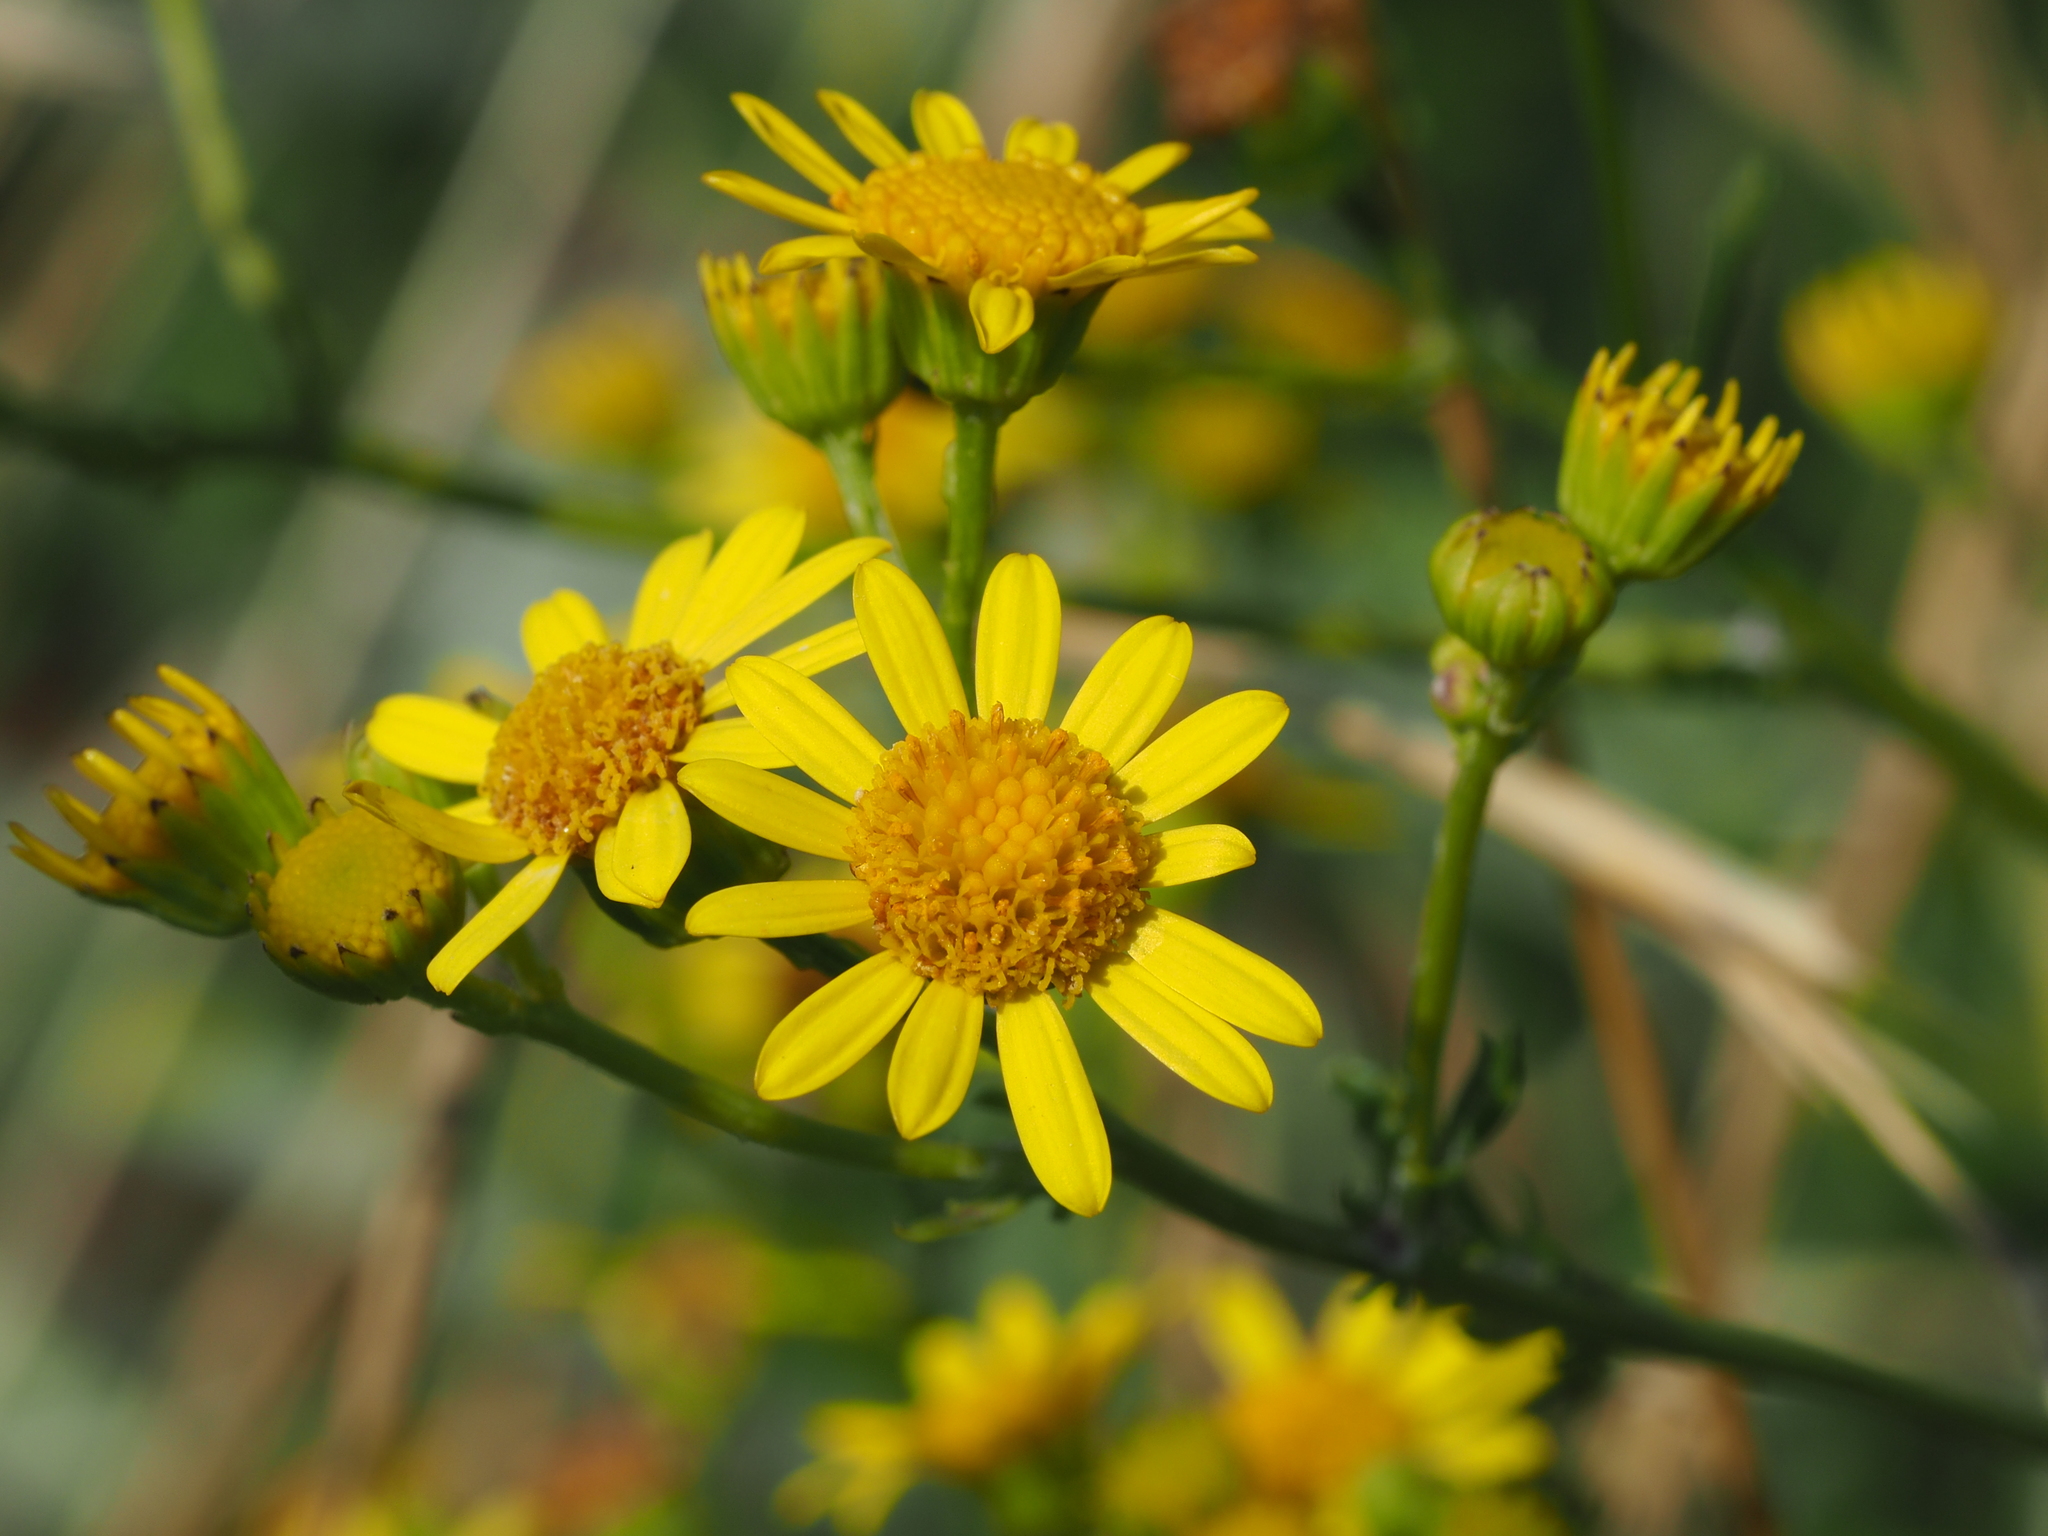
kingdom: Plantae
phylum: Tracheophyta
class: Magnoliopsida
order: Asterales
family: Asteraceae
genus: Jacobaea
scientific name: Jacobaea vulgaris
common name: Stinking willie
